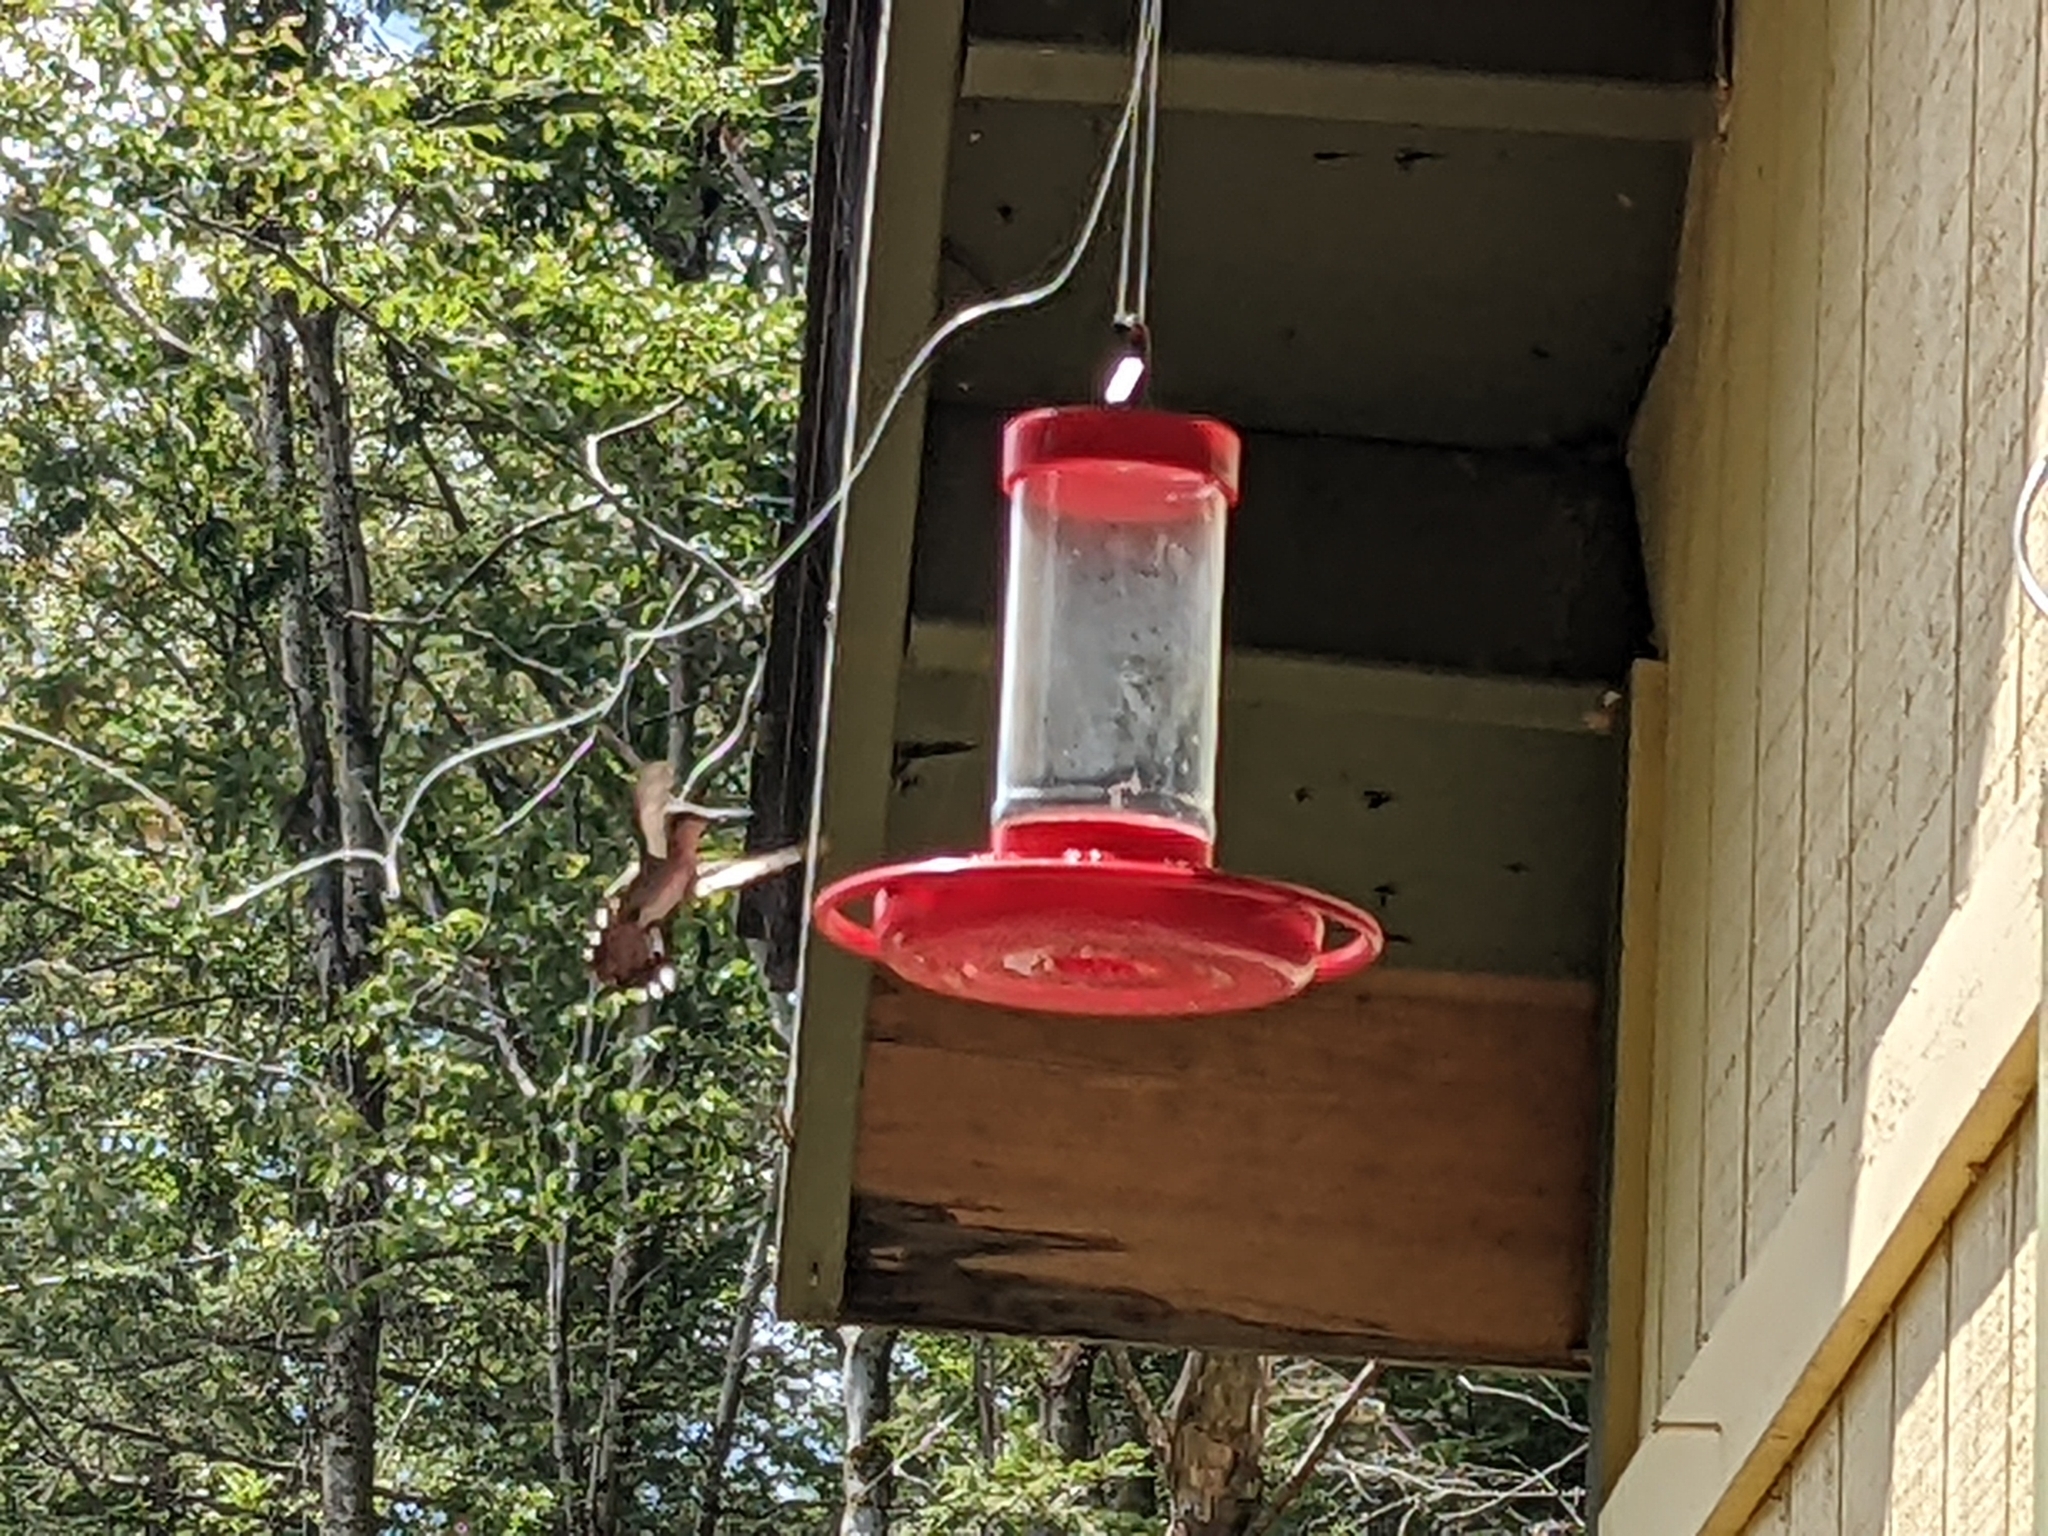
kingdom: Animalia
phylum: Chordata
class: Aves
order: Apodiformes
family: Trochilidae
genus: Archilochus
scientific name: Archilochus colubris
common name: Ruby-throated hummingbird
